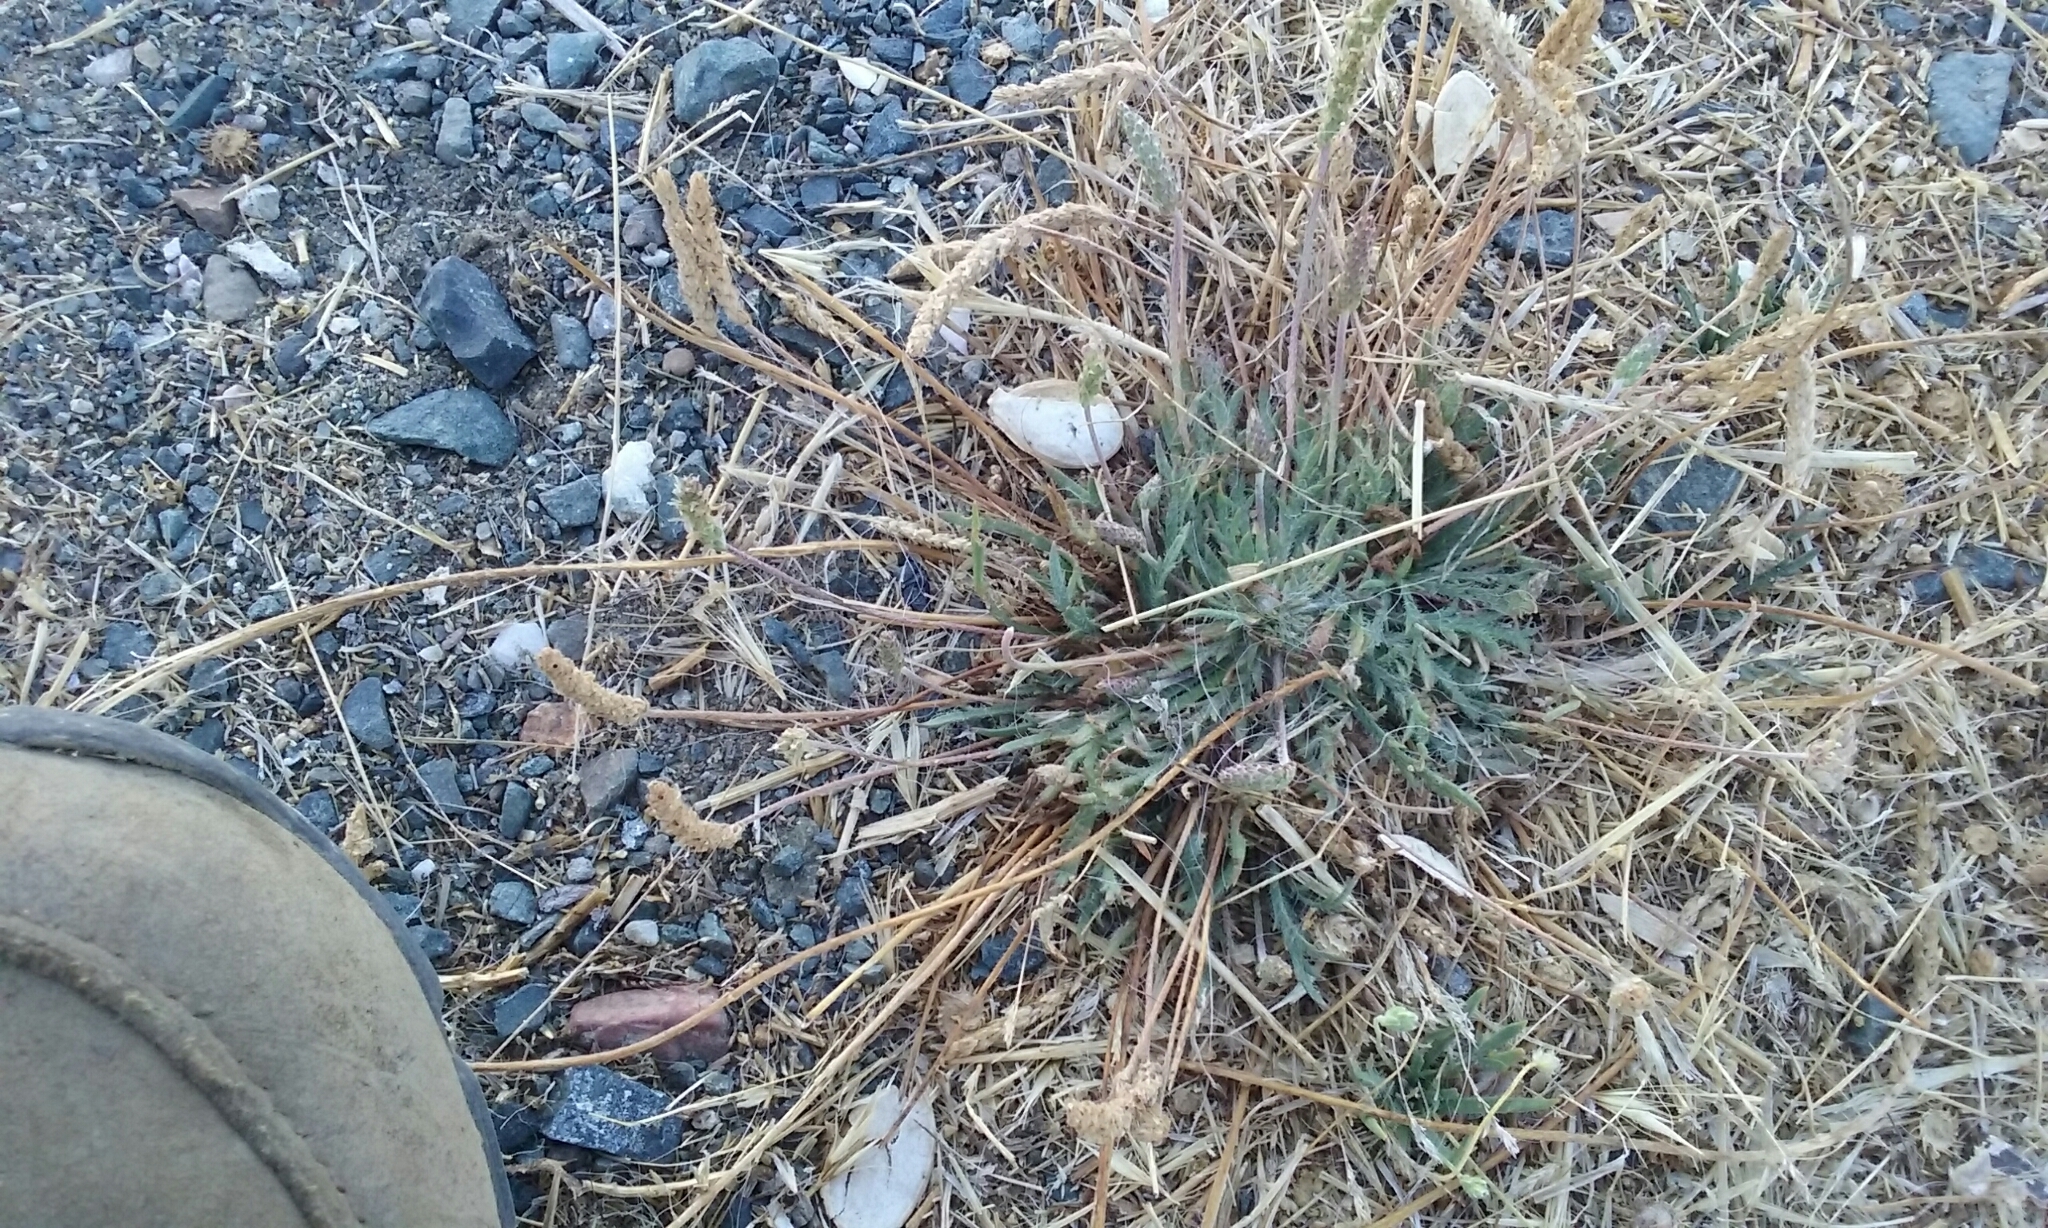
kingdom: Plantae
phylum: Tracheophyta
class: Magnoliopsida
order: Lamiales
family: Plantaginaceae
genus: Plantago
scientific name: Plantago coronopus
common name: Buck's-horn plantain
